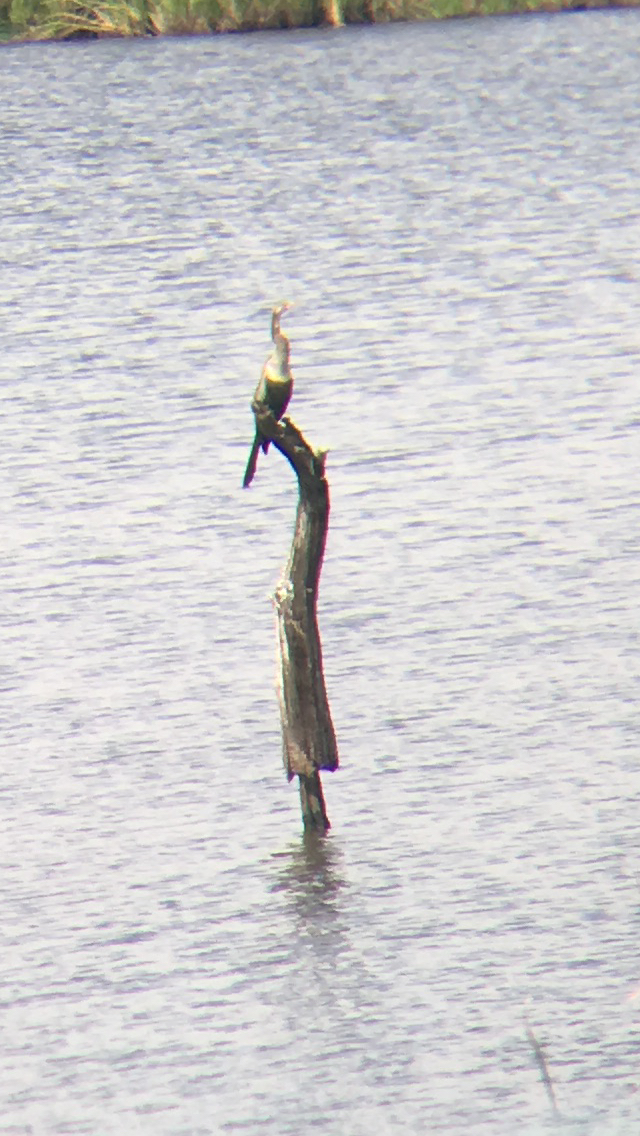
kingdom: Animalia
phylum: Chordata
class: Aves
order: Suliformes
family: Anhingidae
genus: Anhinga
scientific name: Anhinga anhinga
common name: Anhinga
